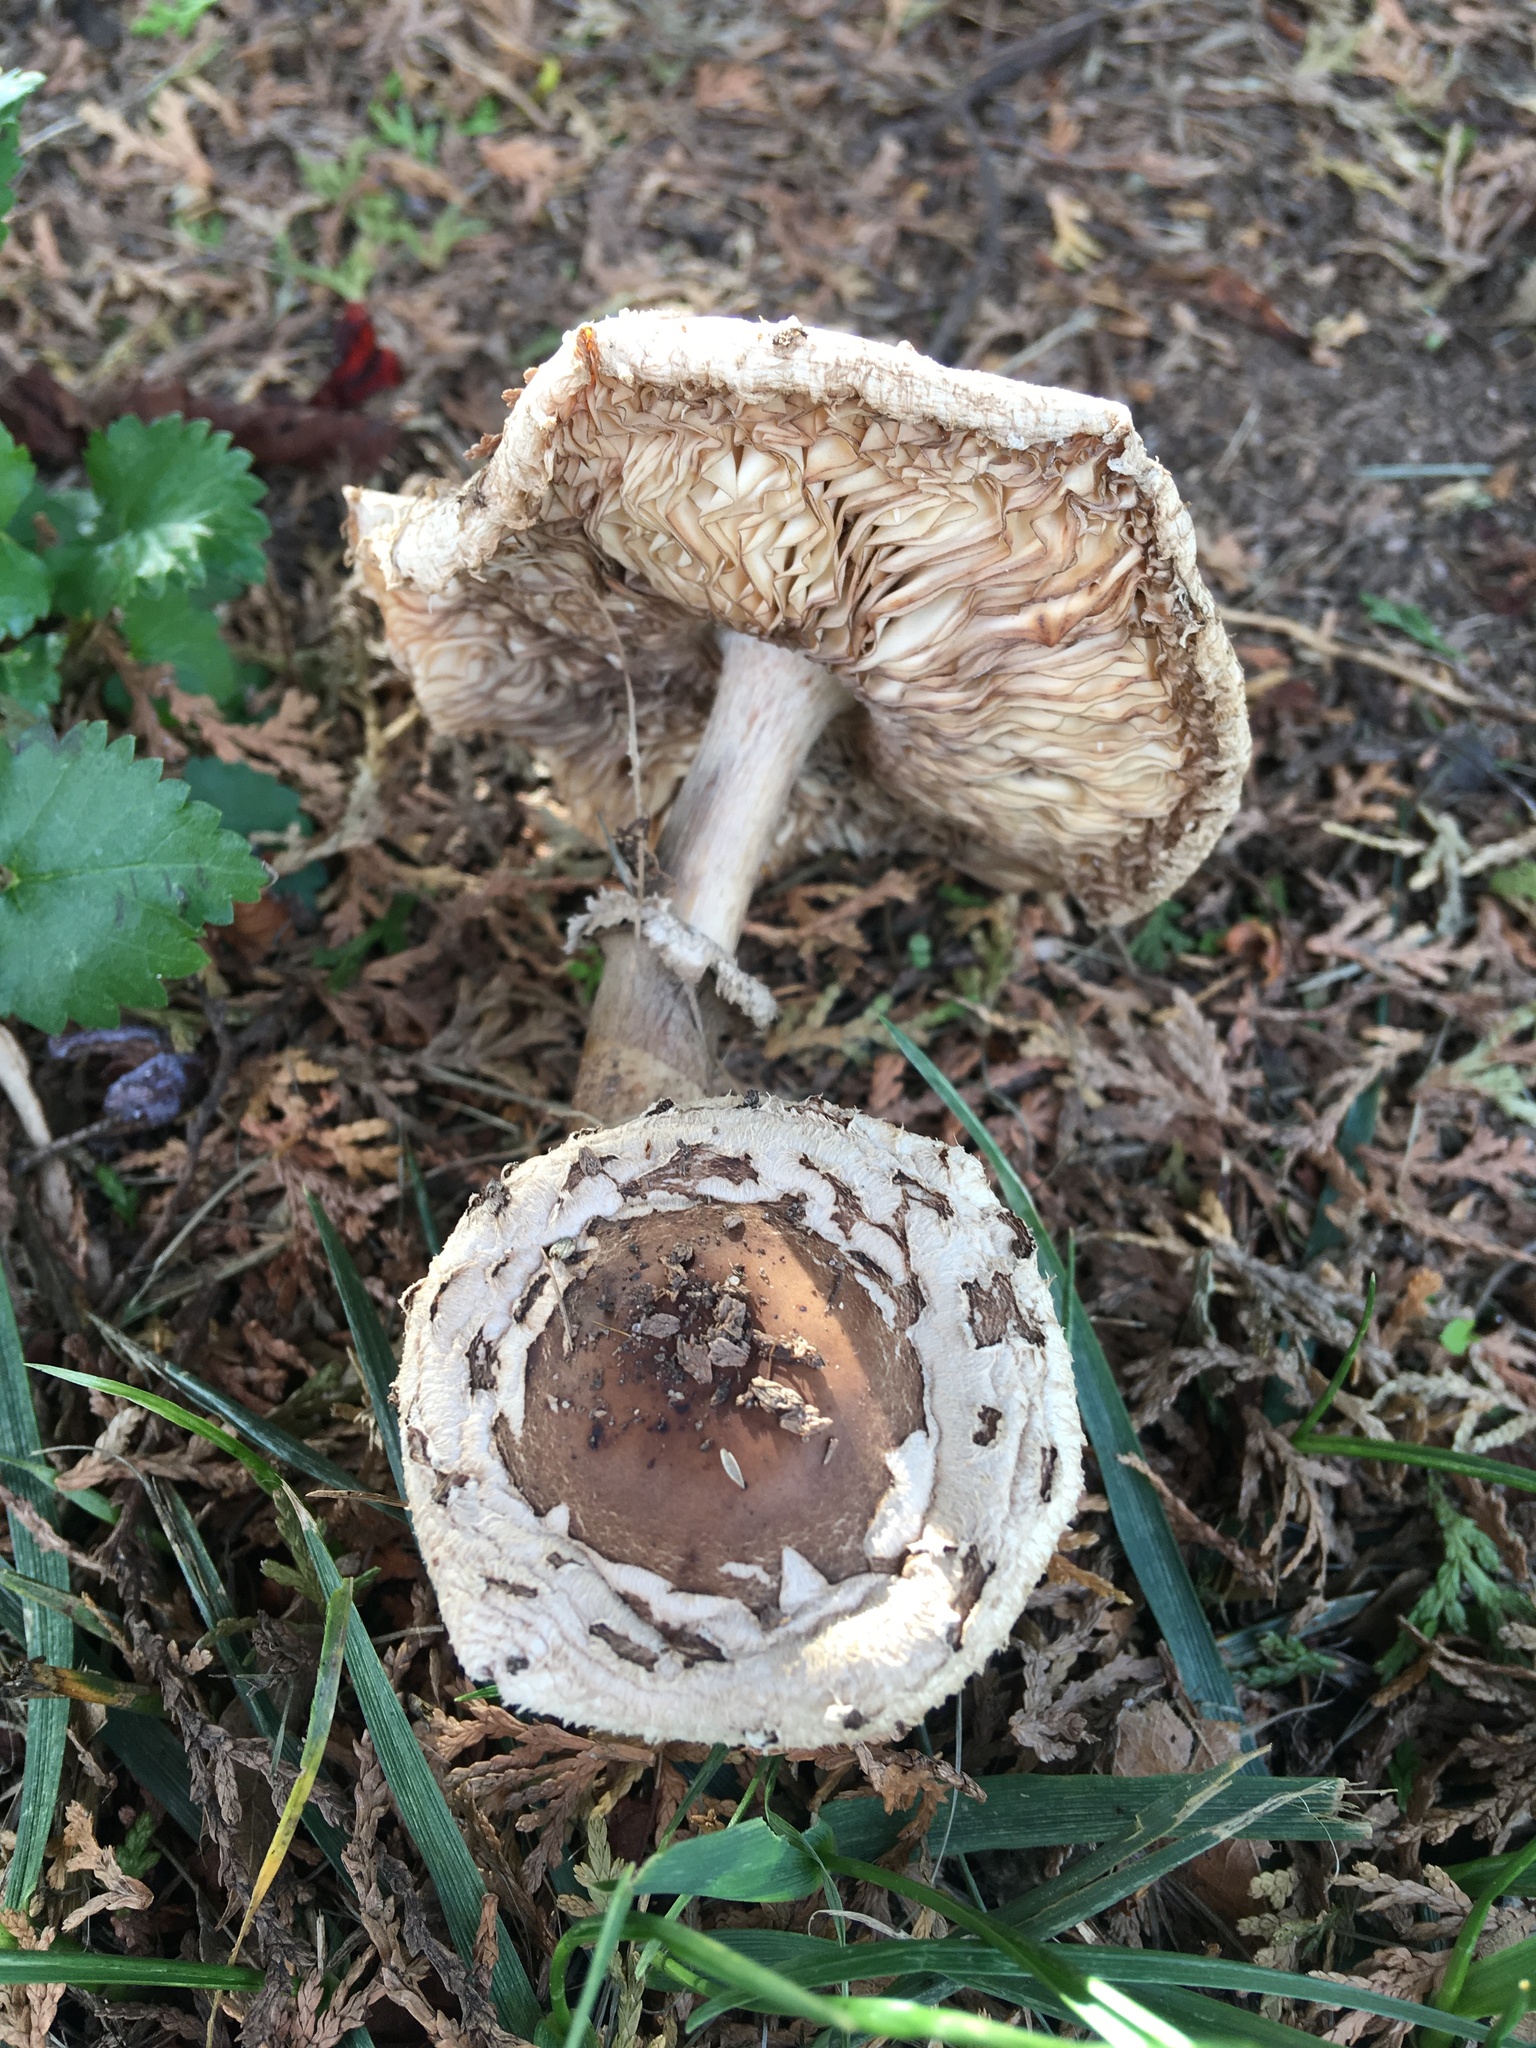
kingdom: Fungi
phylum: Basidiomycota
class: Agaricomycetes
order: Agaricales
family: Agaricaceae
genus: Chlorophyllum
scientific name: Chlorophyllum brunneum
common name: Brown parasol
